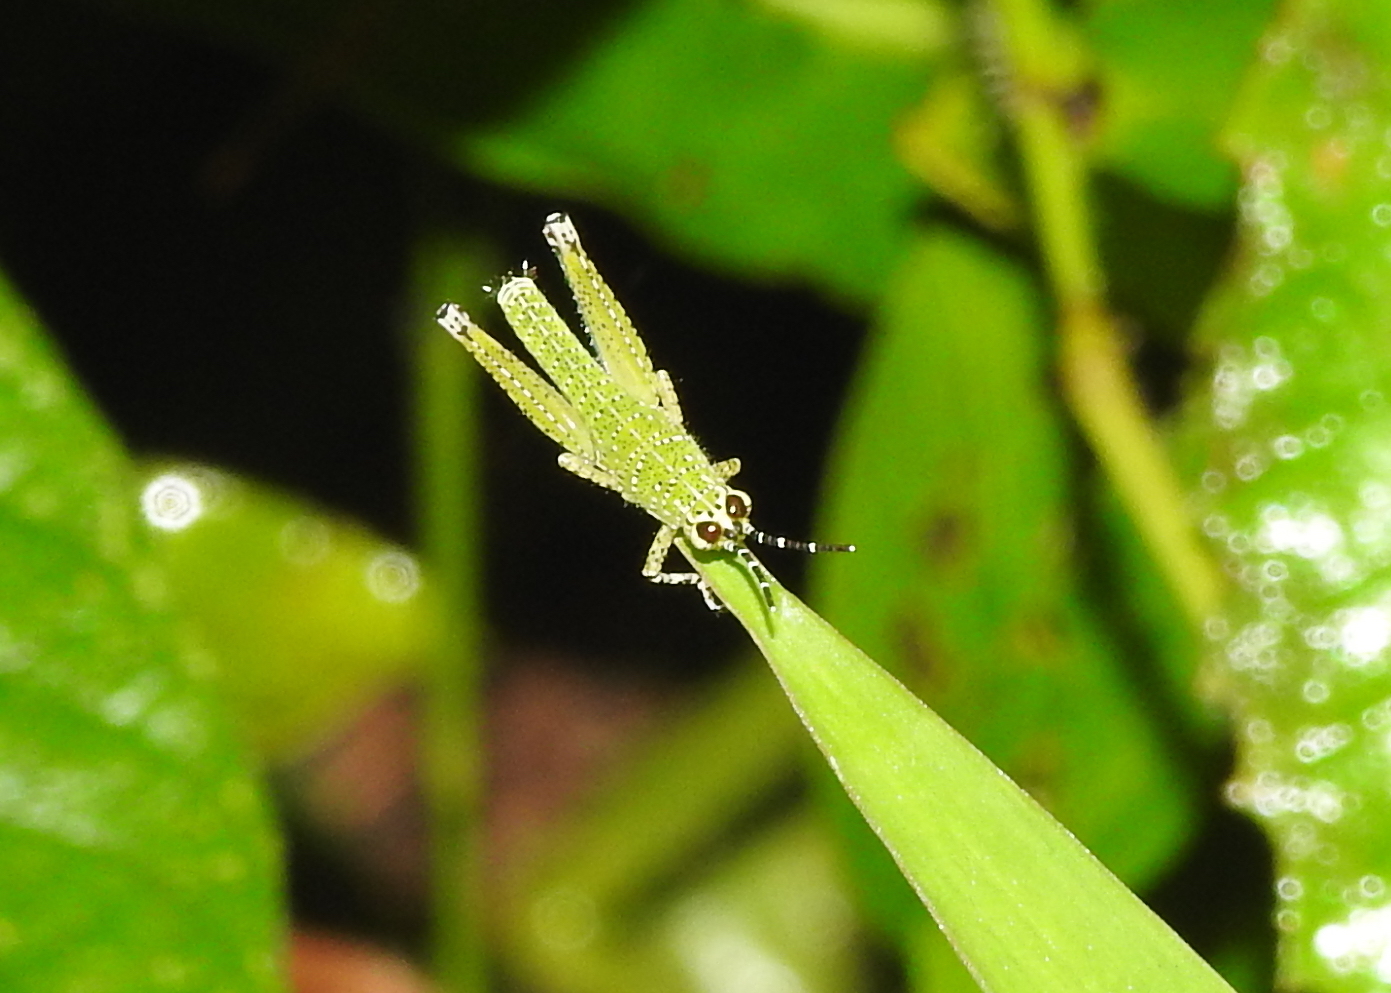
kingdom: Animalia
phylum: Arthropoda
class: Insecta
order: Orthoptera
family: Acrididae
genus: Xenocatantops
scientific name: Xenocatantops humile
